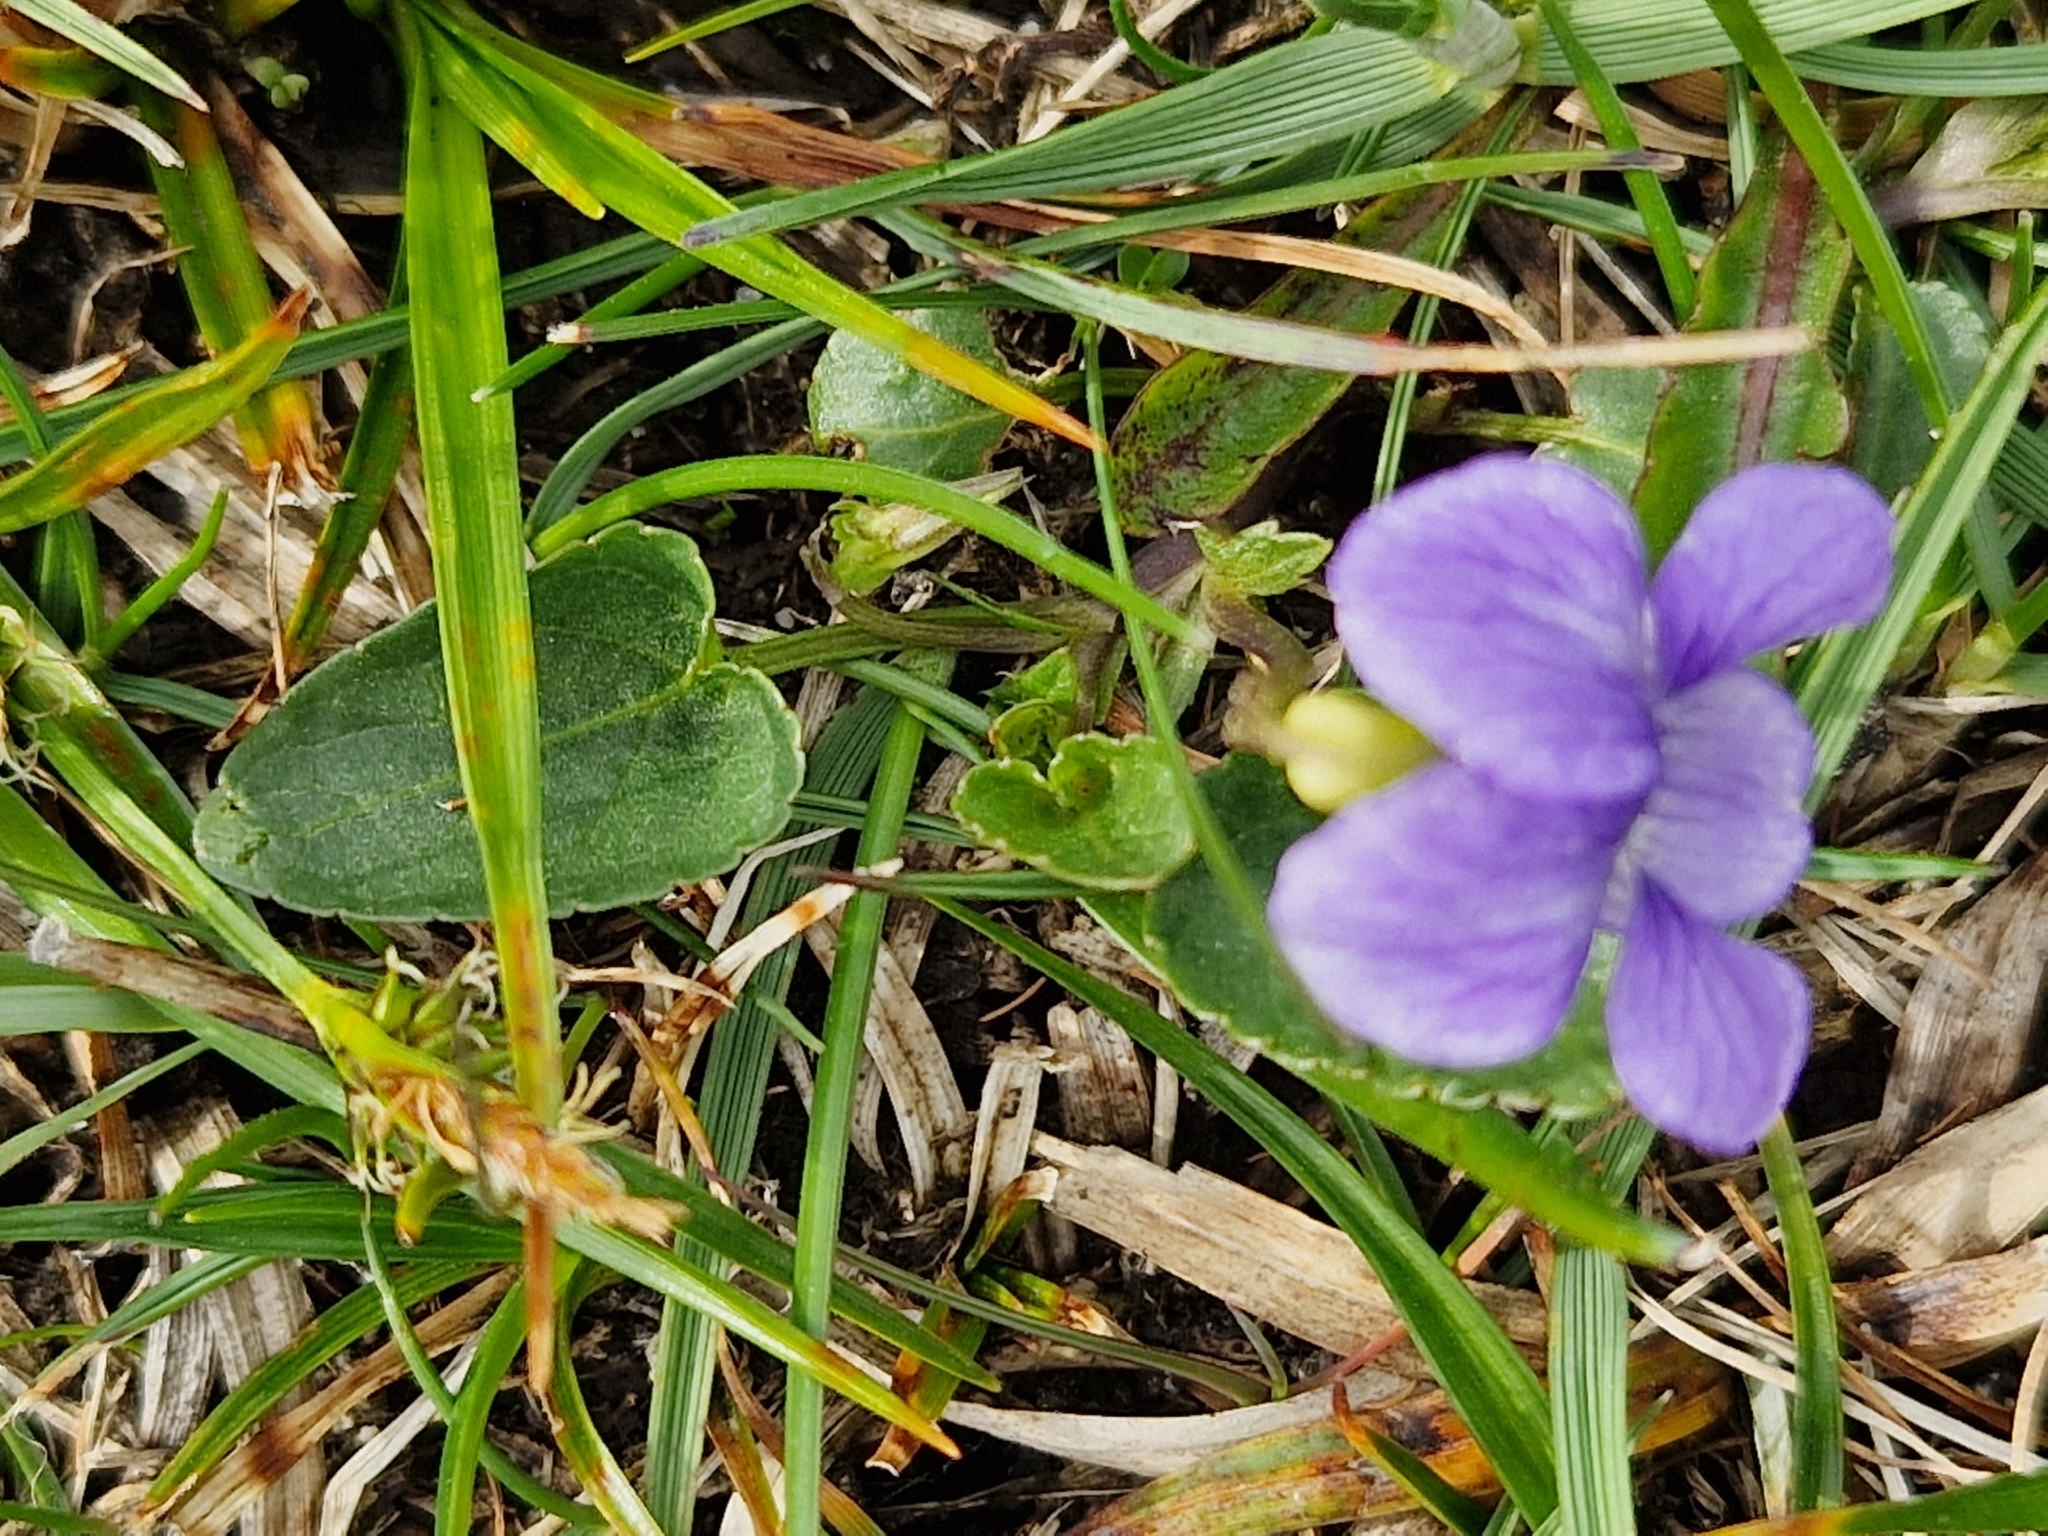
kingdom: Plantae
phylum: Tracheophyta
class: Magnoliopsida
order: Malpighiales
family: Violaceae
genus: Viola
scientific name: Viola riviniana
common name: Common dog-violet
